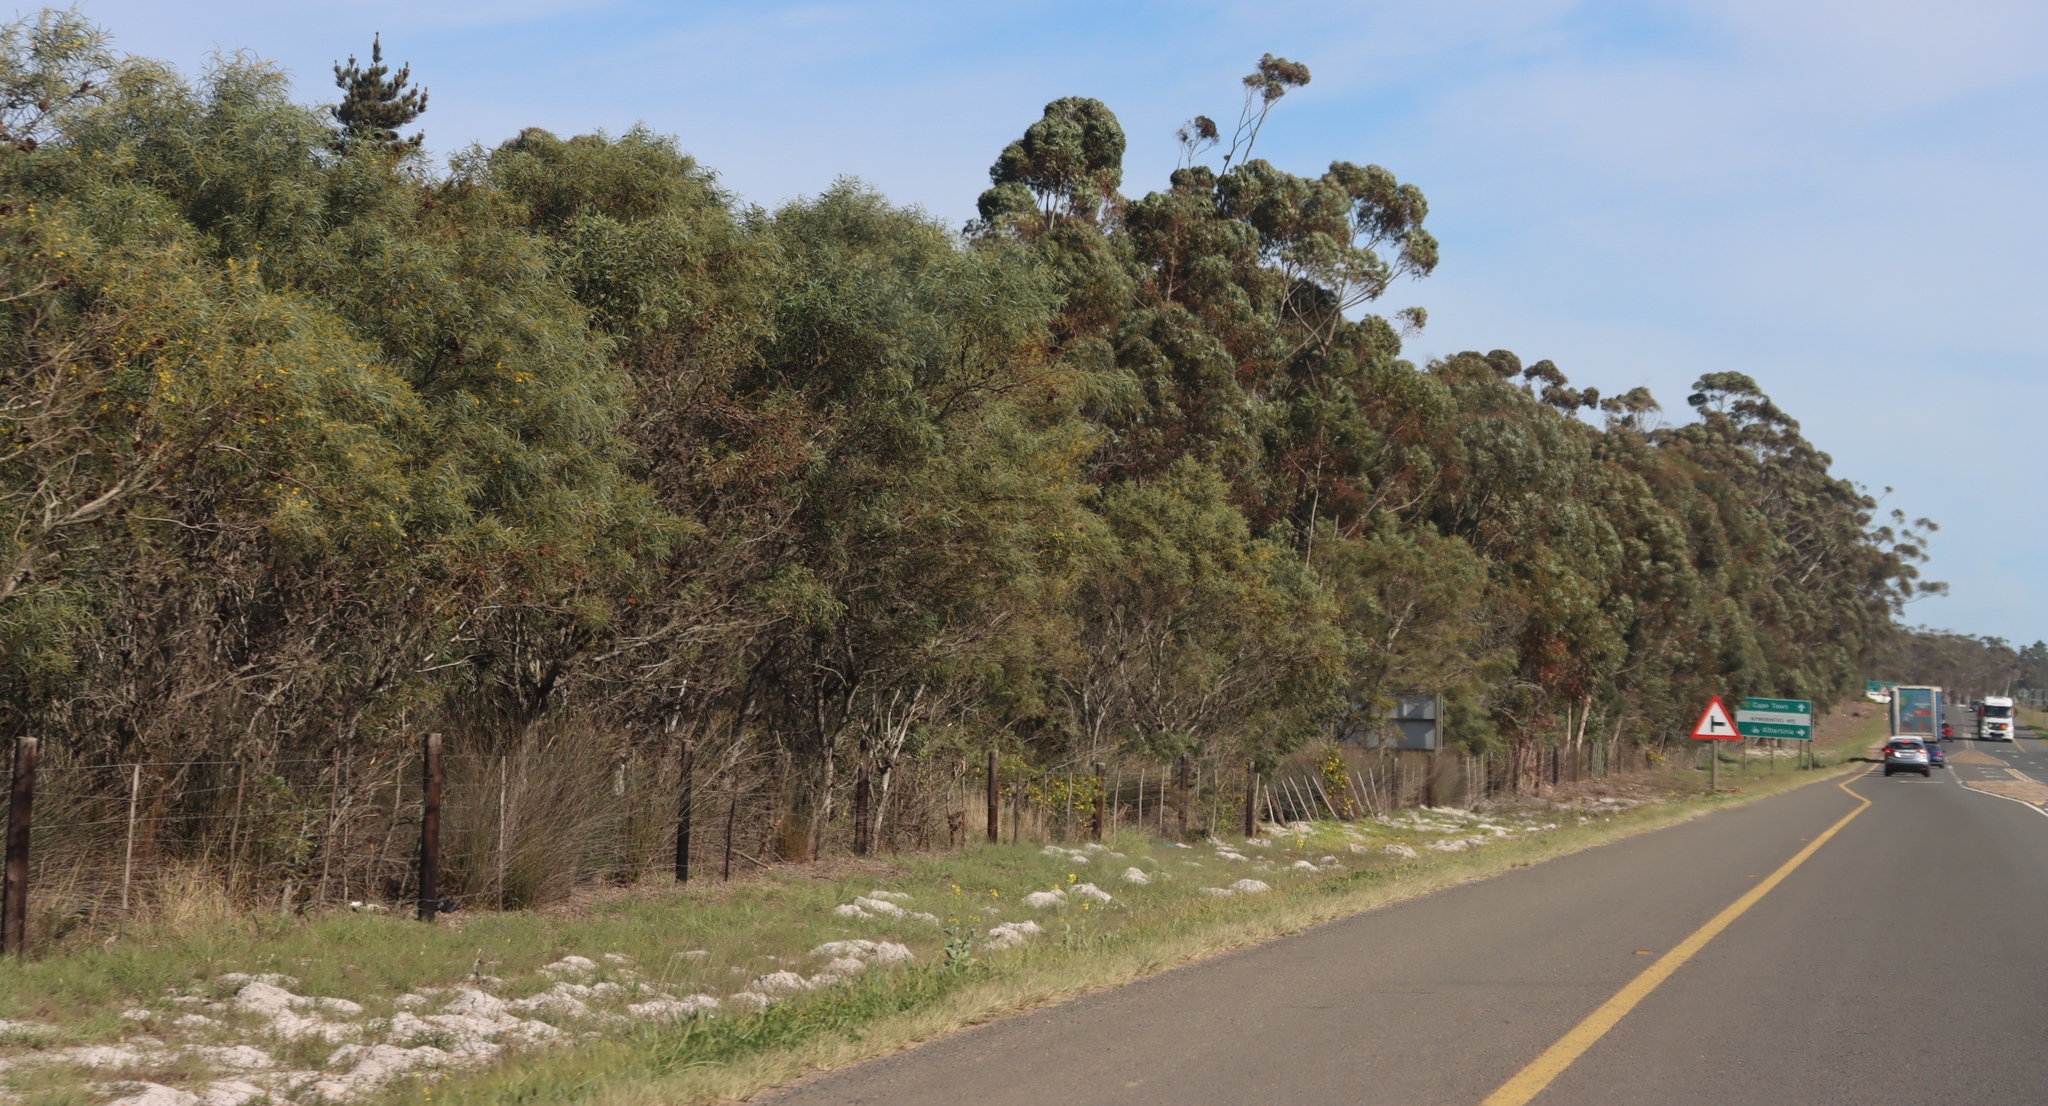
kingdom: Plantae
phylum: Tracheophyta
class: Magnoliopsida
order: Fabales
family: Fabaceae
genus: Acacia
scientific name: Acacia saligna
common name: Orange wattle
